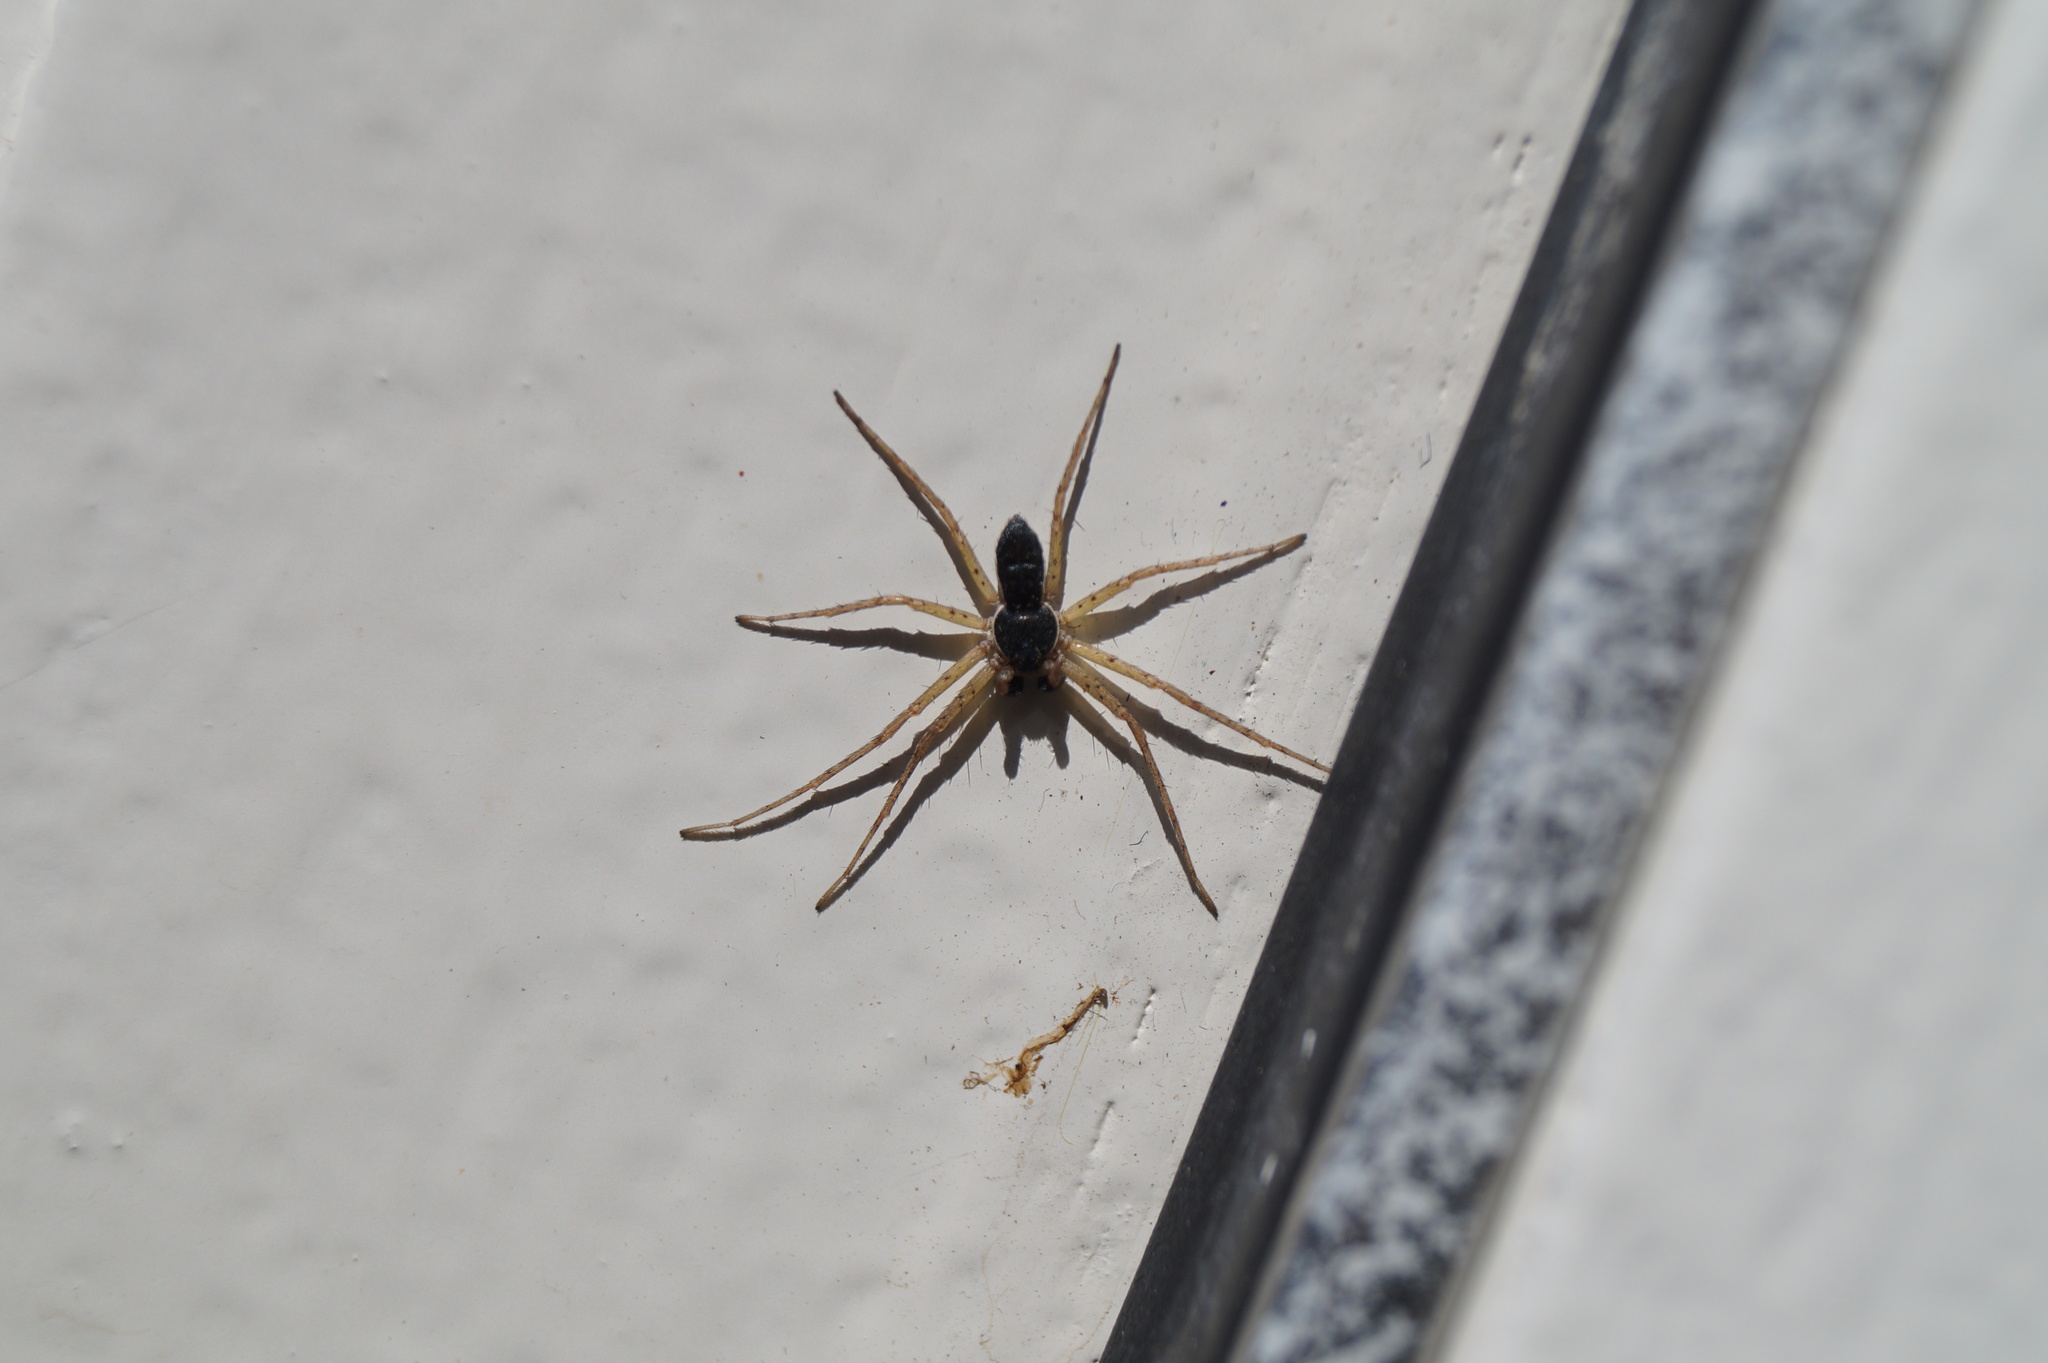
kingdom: Animalia
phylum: Arthropoda
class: Arachnida
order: Araneae
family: Philodromidae
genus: Philodromus
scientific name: Philodromus dispar
